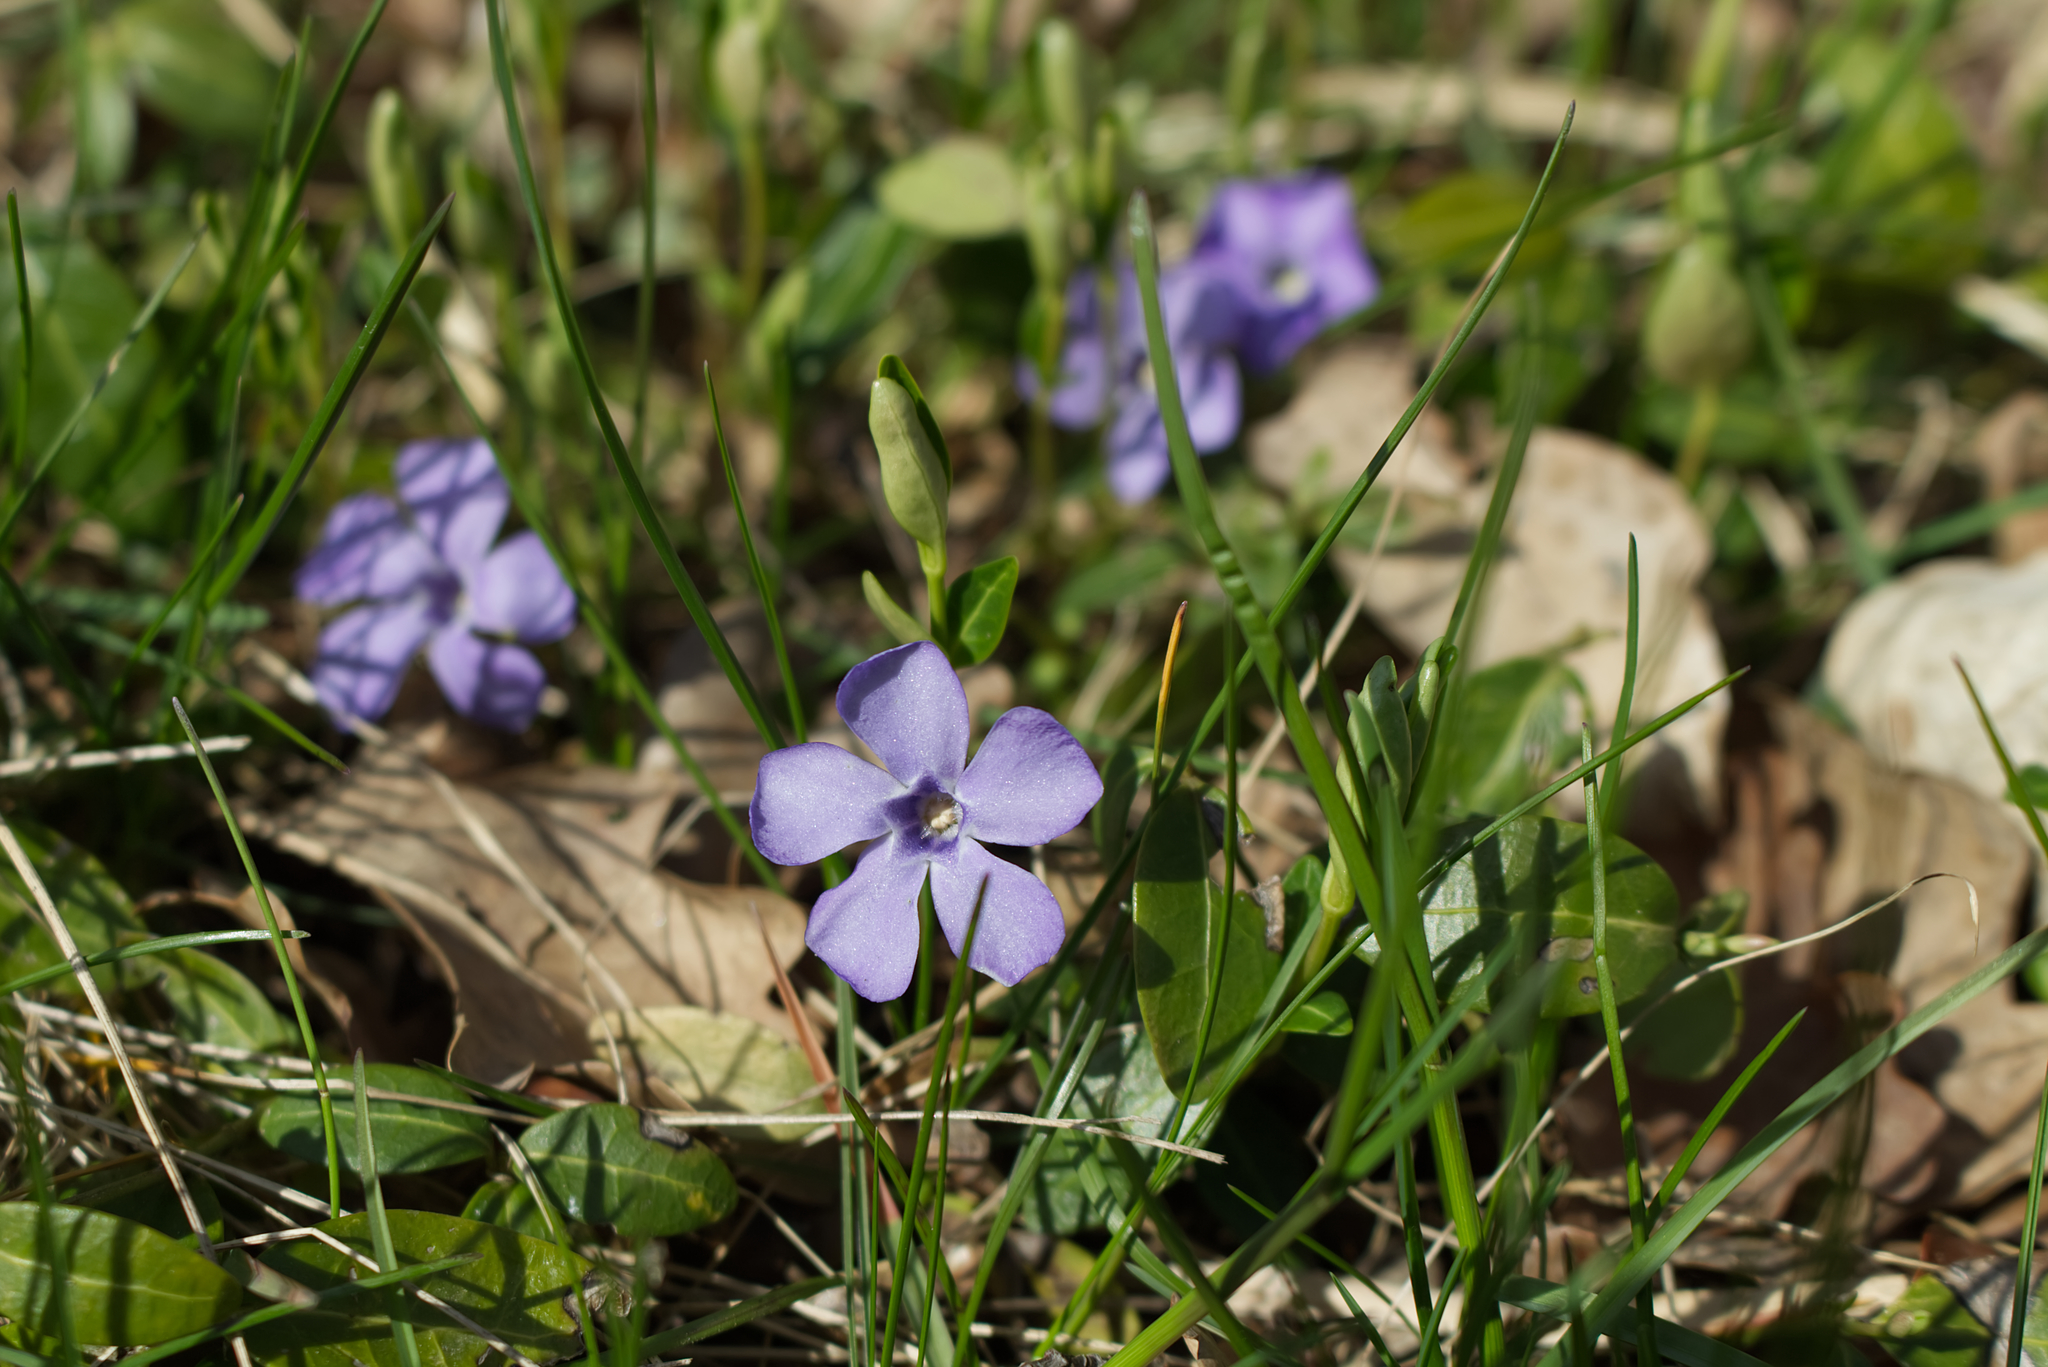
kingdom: Plantae
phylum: Tracheophyta
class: Magnoliopsida
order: Gentianales
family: Apocynaceae
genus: Vinca
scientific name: Vinca minor
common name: Lesser periwinkle
